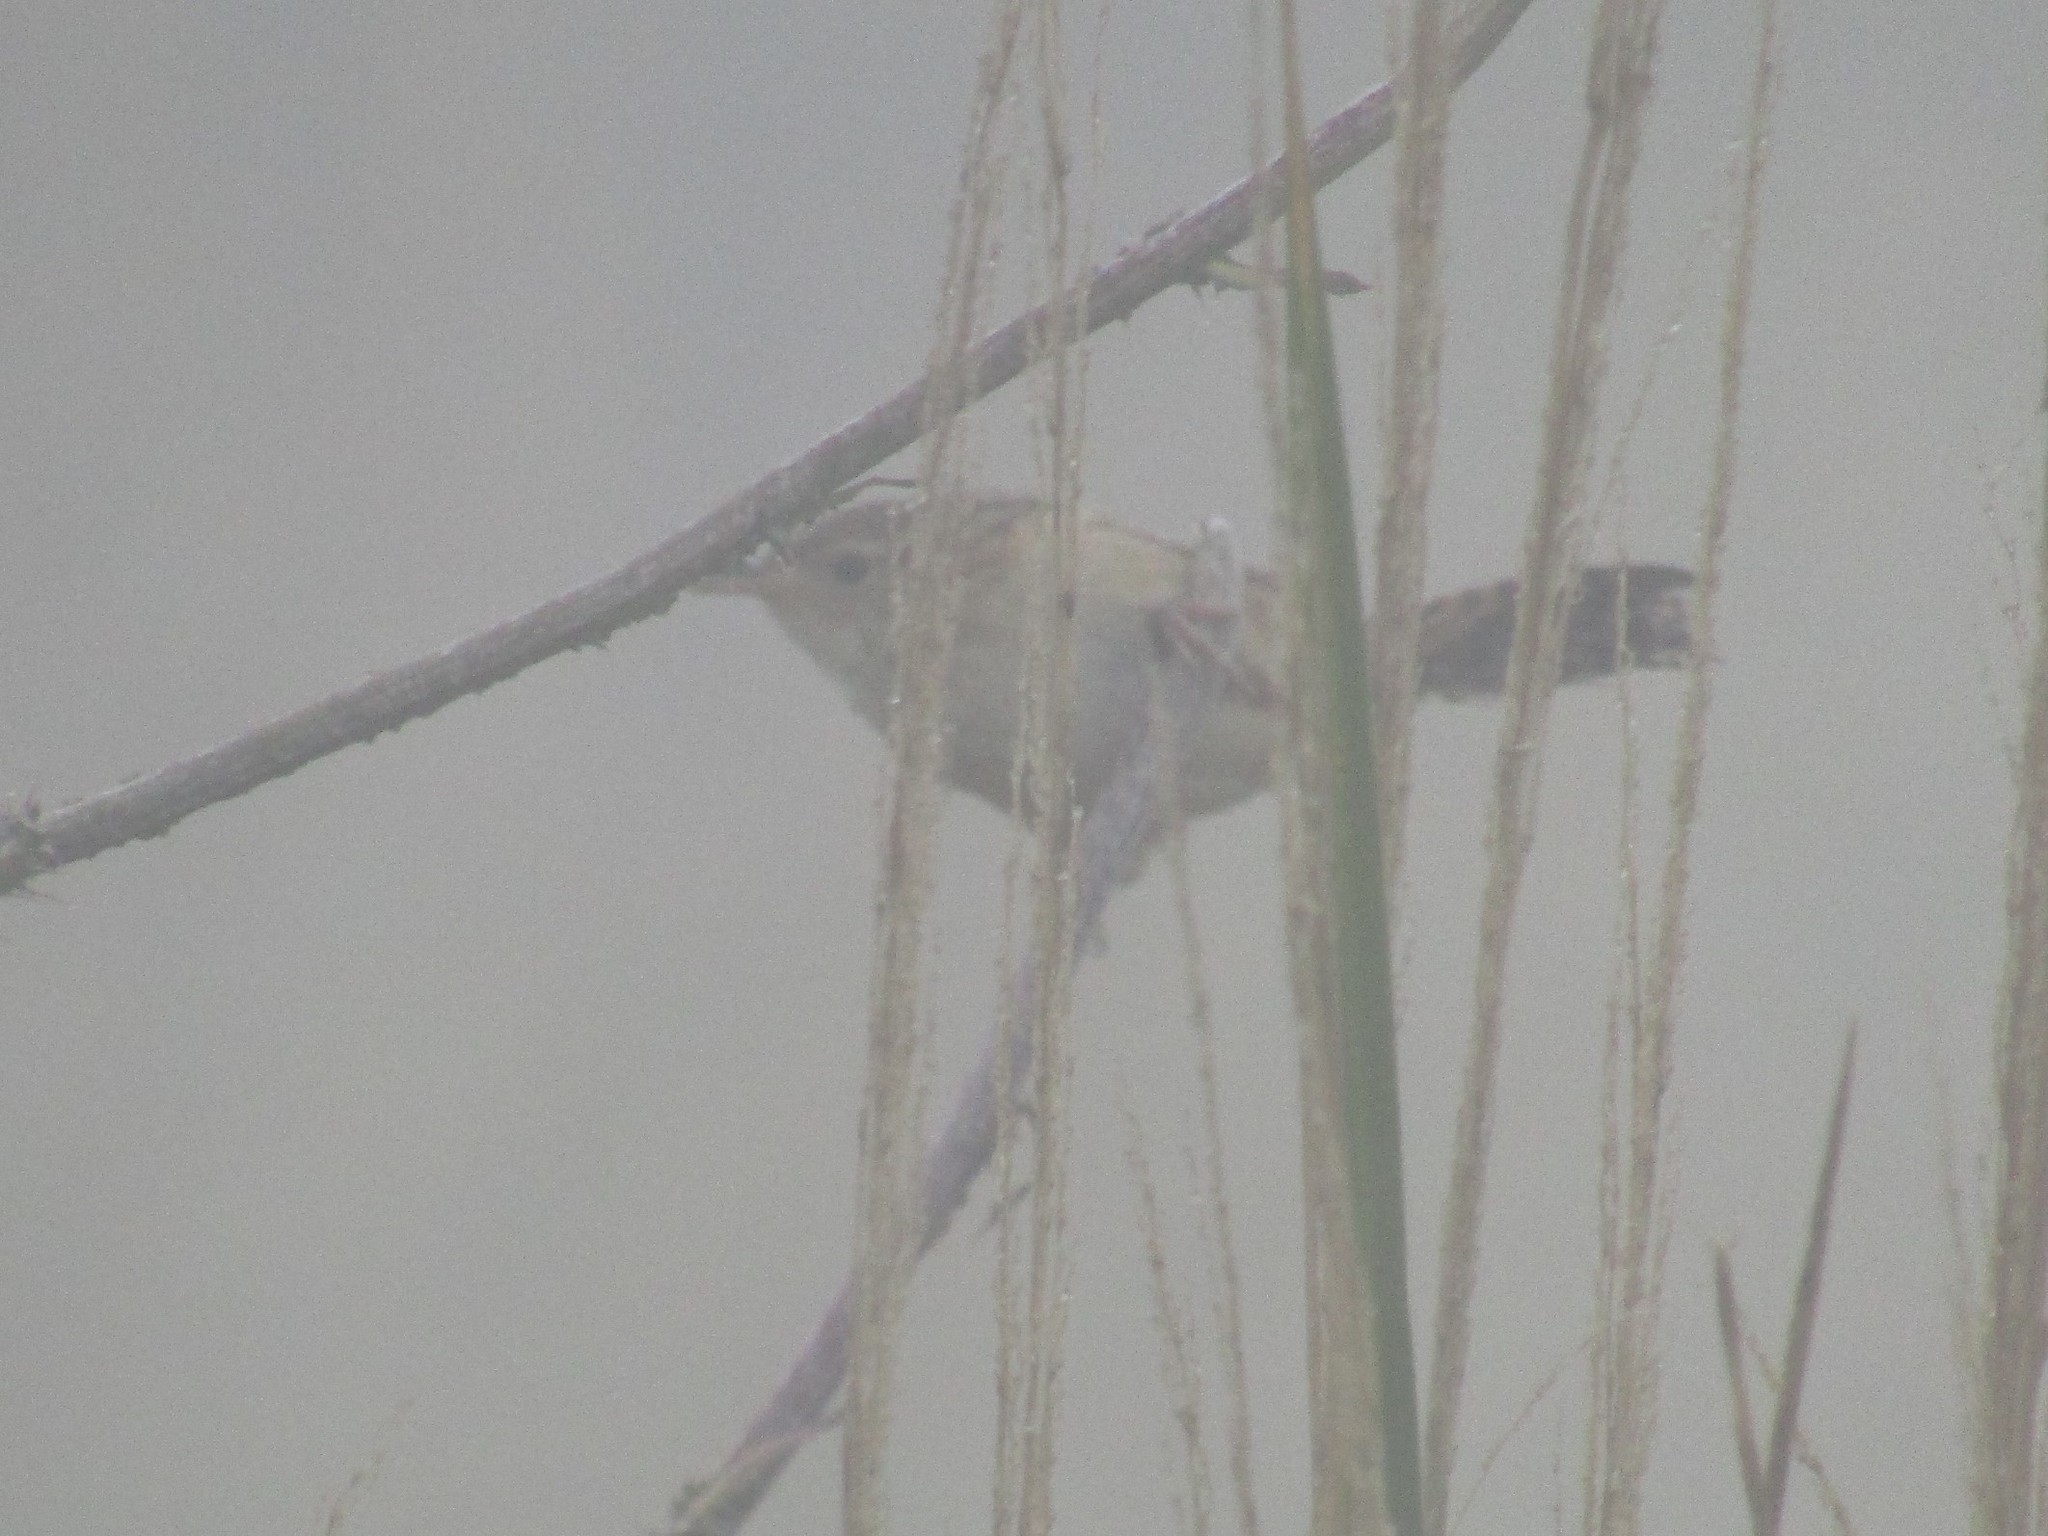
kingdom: Animalia
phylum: Chordata
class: Aves
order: Passeriformes
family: Troglodytidae
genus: Cistothorus
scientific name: Cistothorus platensis
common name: Sedge wren
